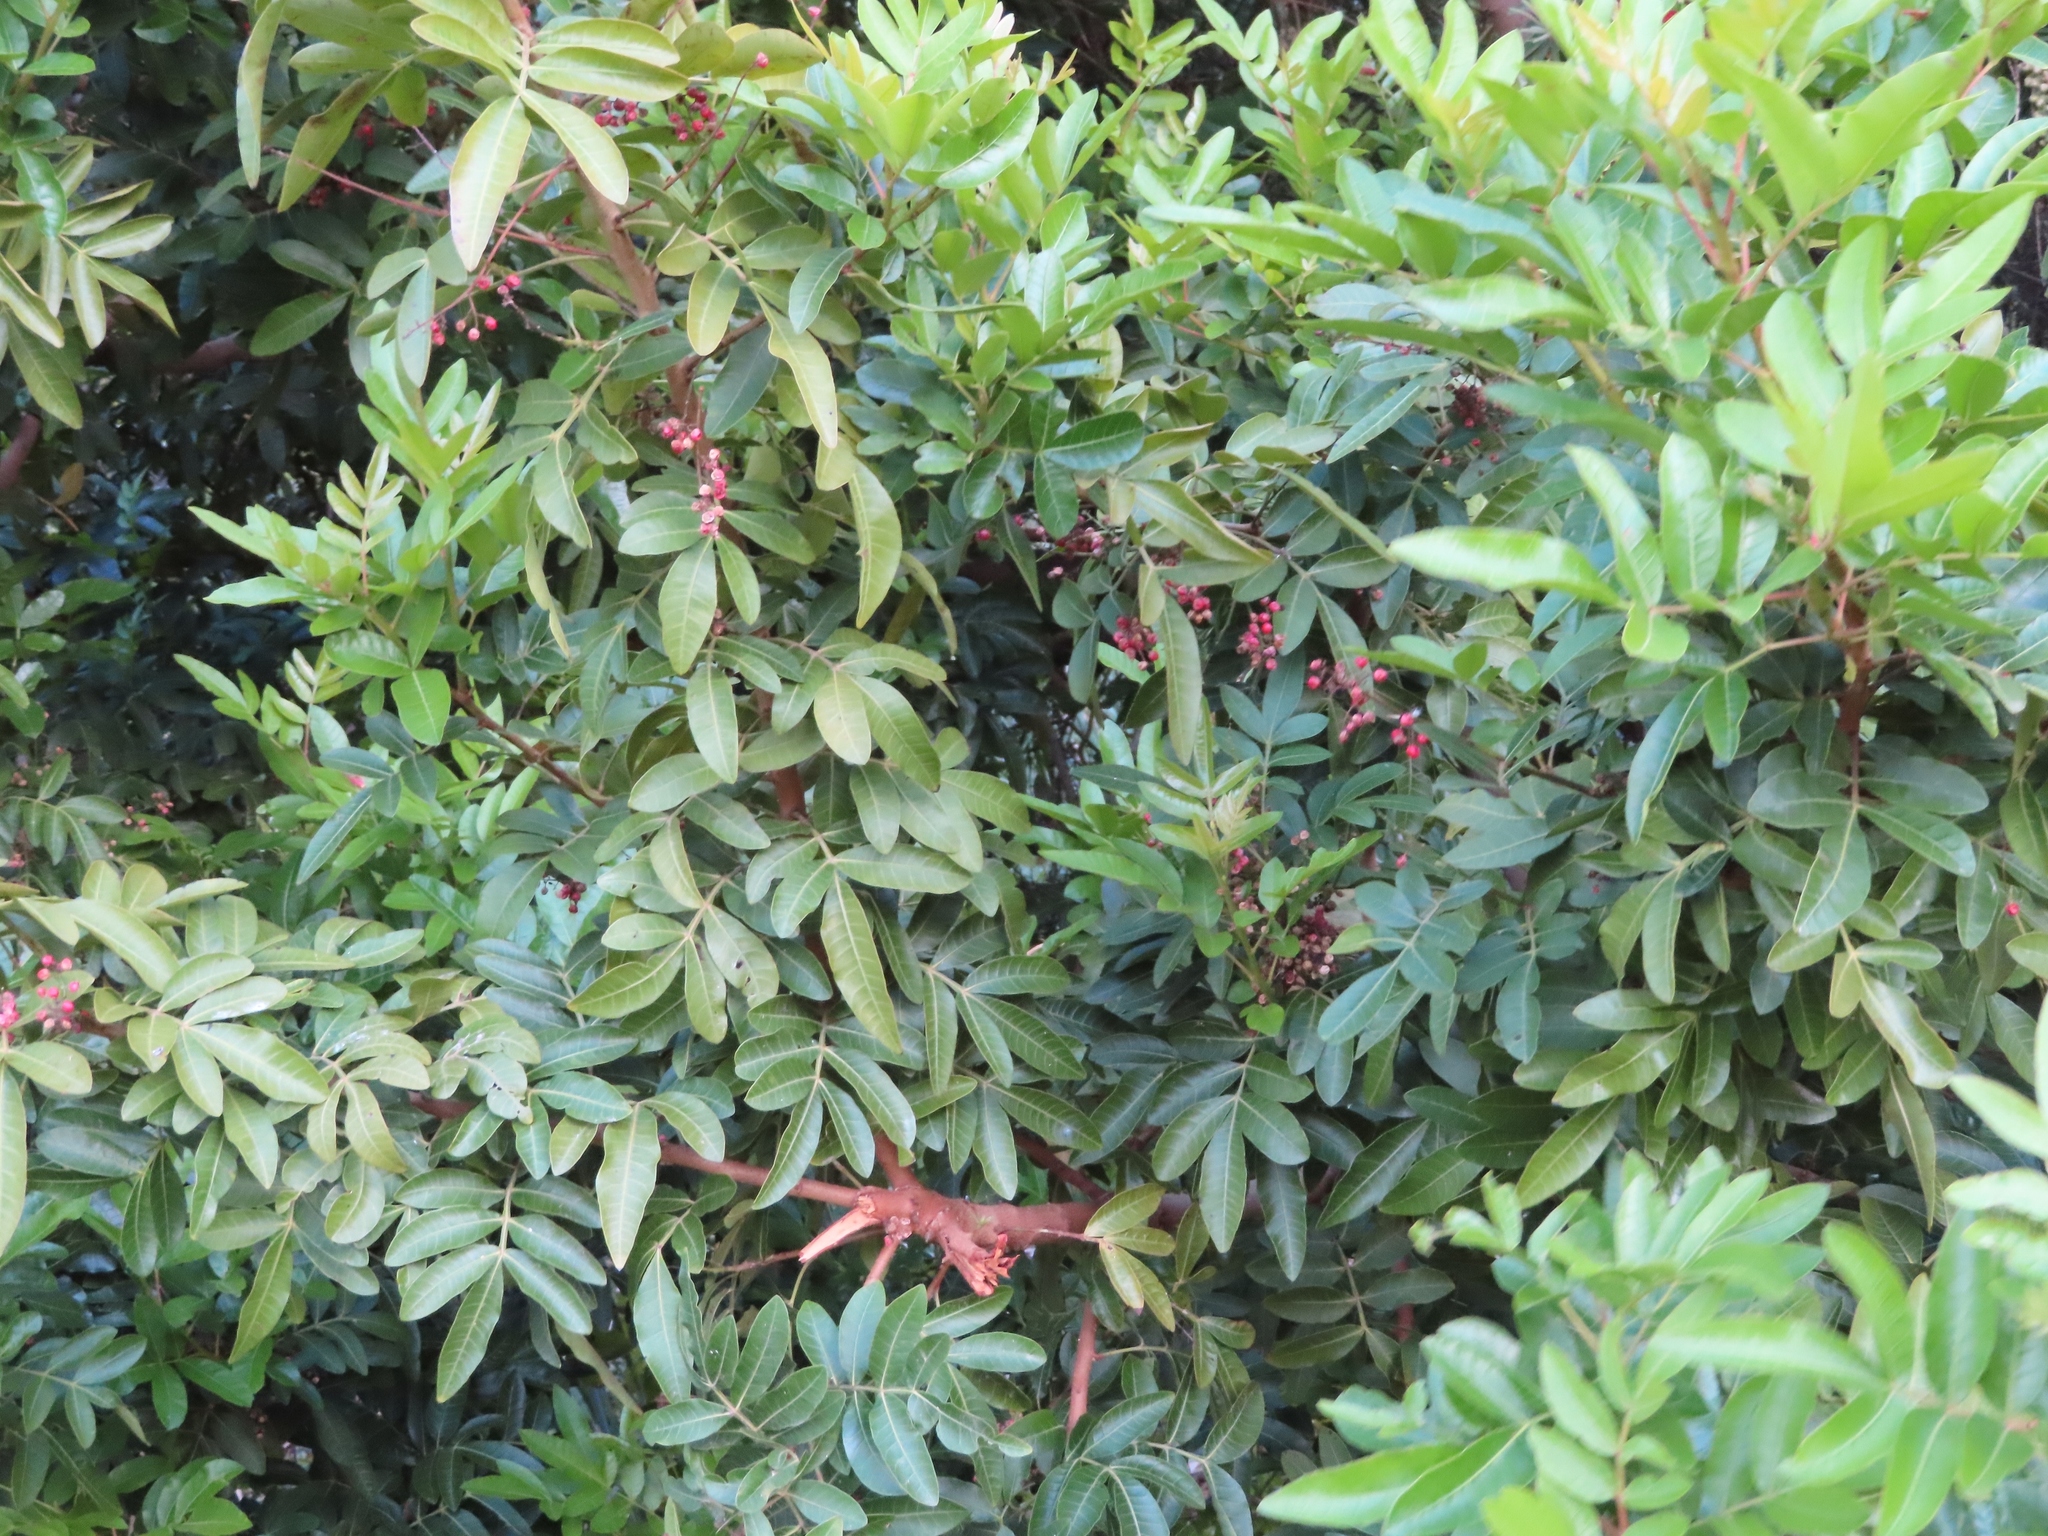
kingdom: Plantae
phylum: Tracheophyta
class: Magnoliopsida
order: Sapindales
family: Anacardiaceae
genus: Schinus
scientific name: Schinus terebinthifolia
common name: Brazilian peppertree
